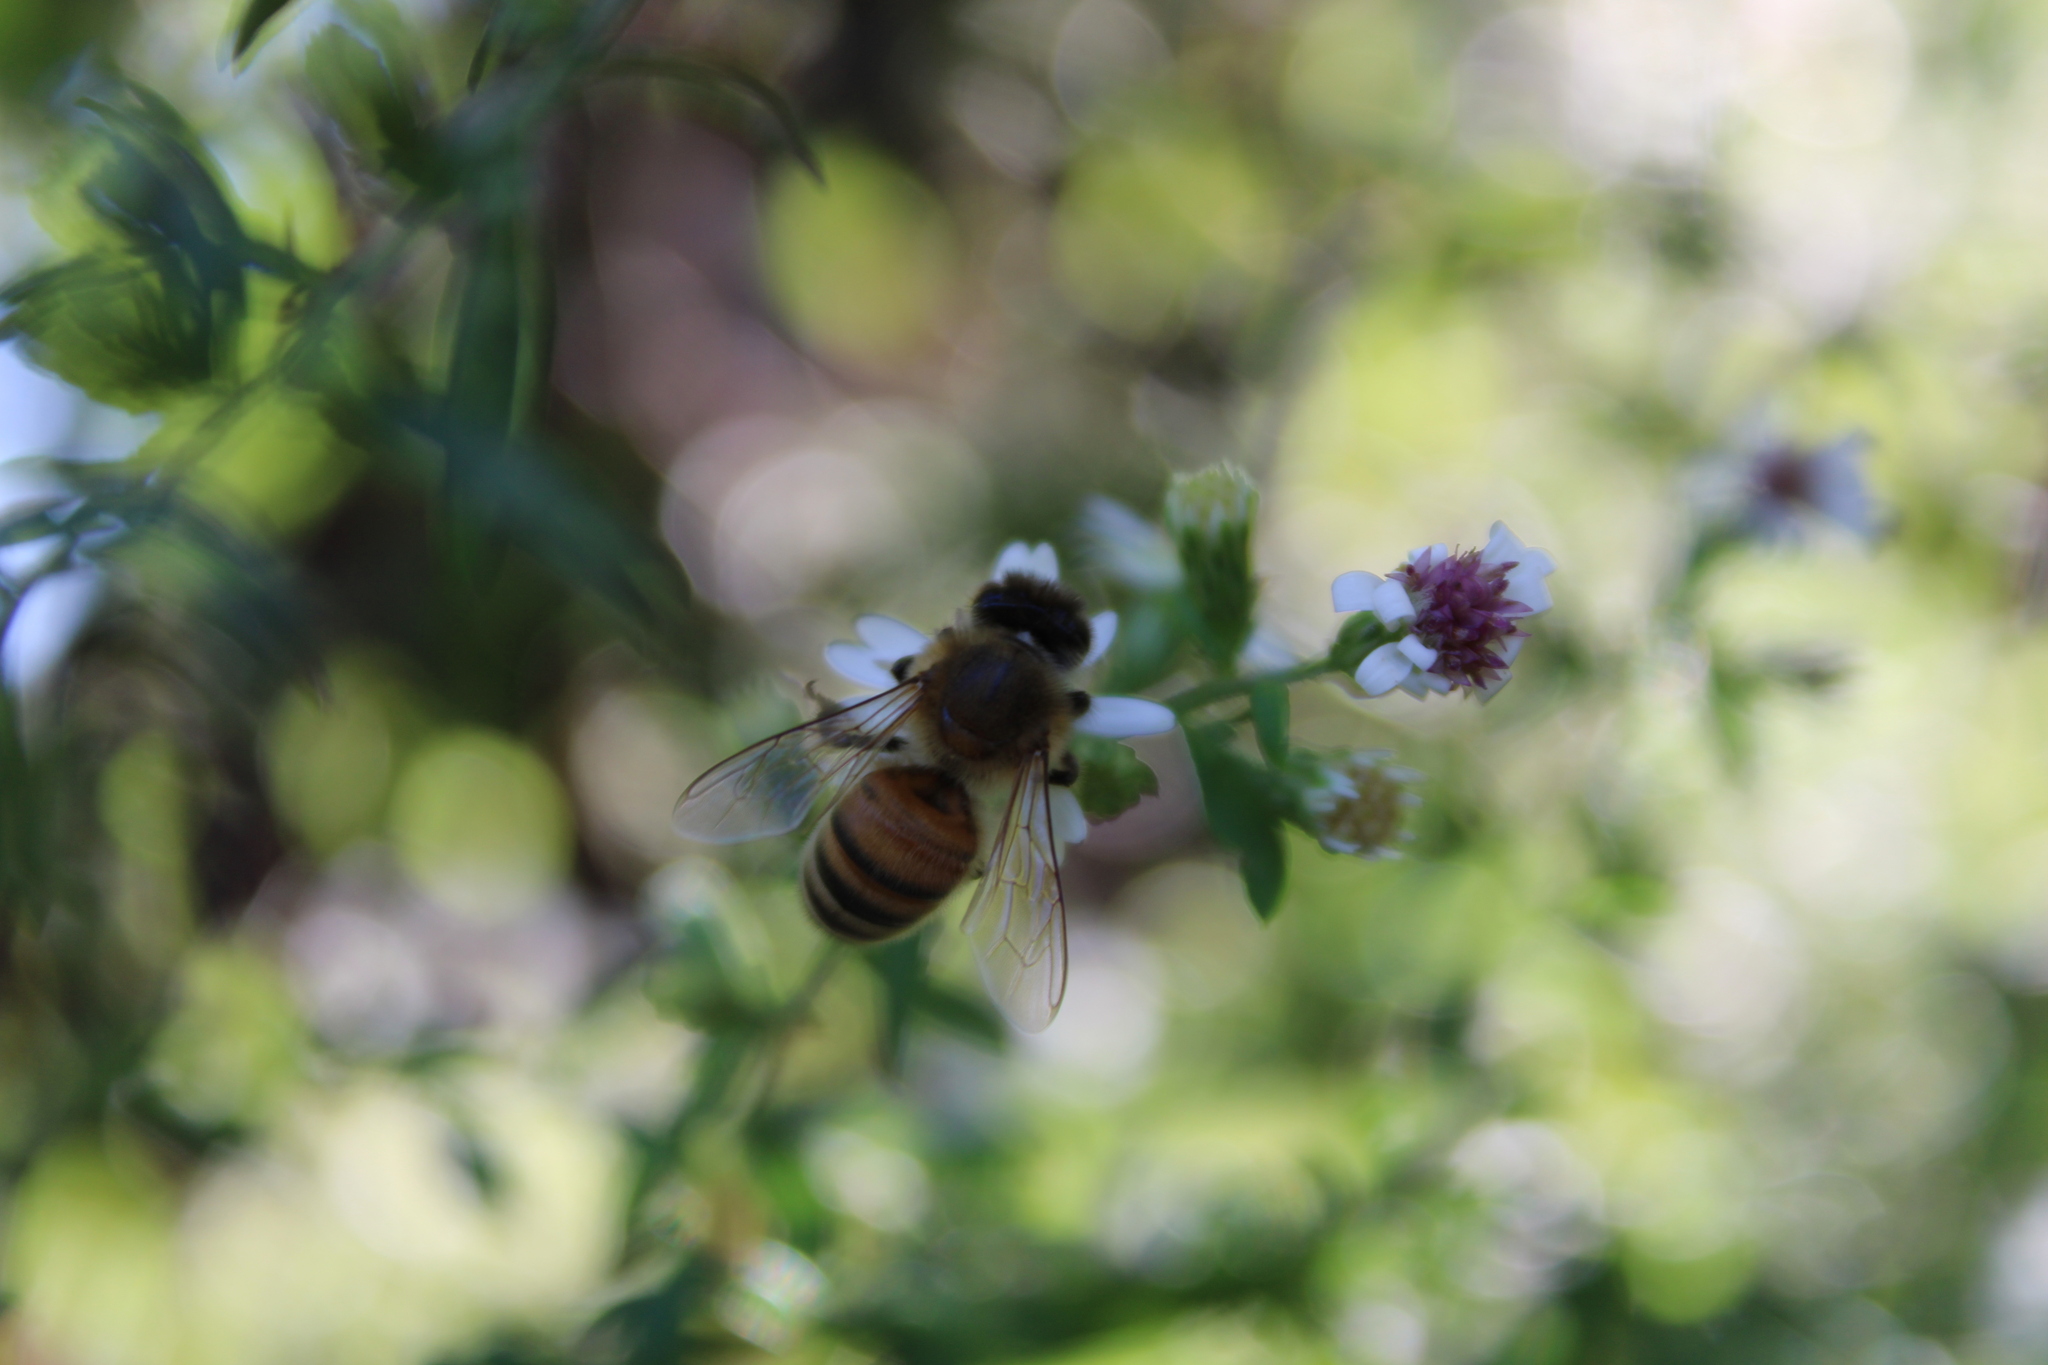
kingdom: Animalia
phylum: Arthropoda
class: Insecta
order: Hymenoptera
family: Apidae
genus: Apis
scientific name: Apis mellifera
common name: Honey bee
